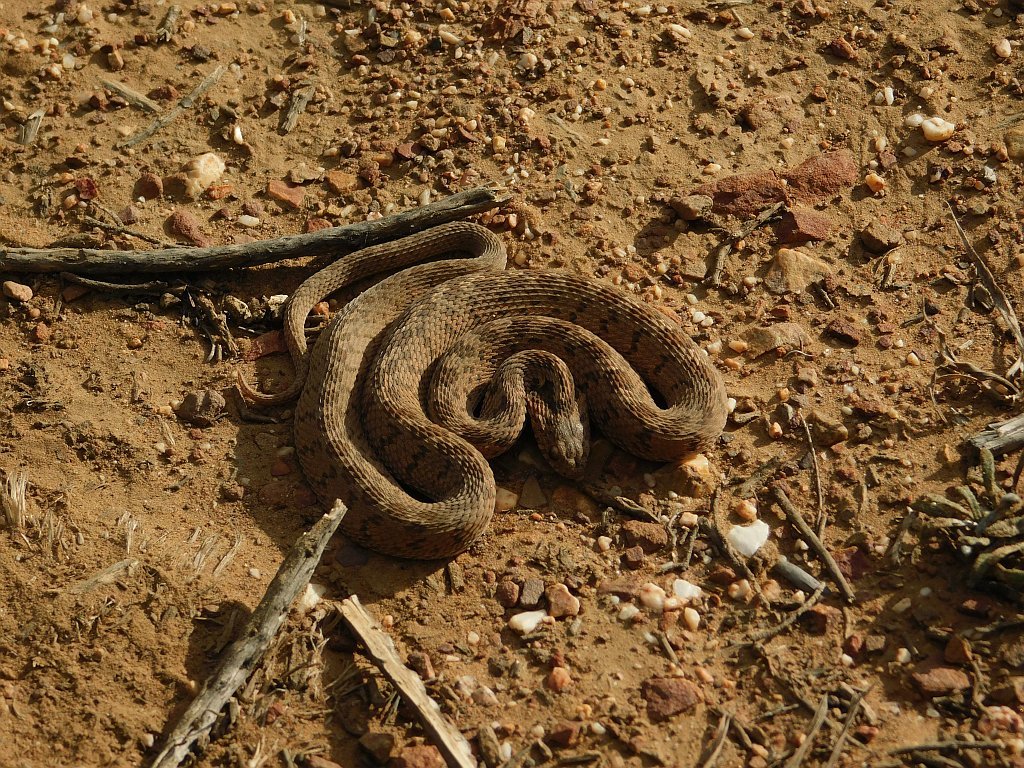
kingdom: Animalia
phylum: Chordata
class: Squamata
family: Colubridae
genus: Dasypeltis
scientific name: Dasypeltis scabra
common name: Common egg eater
